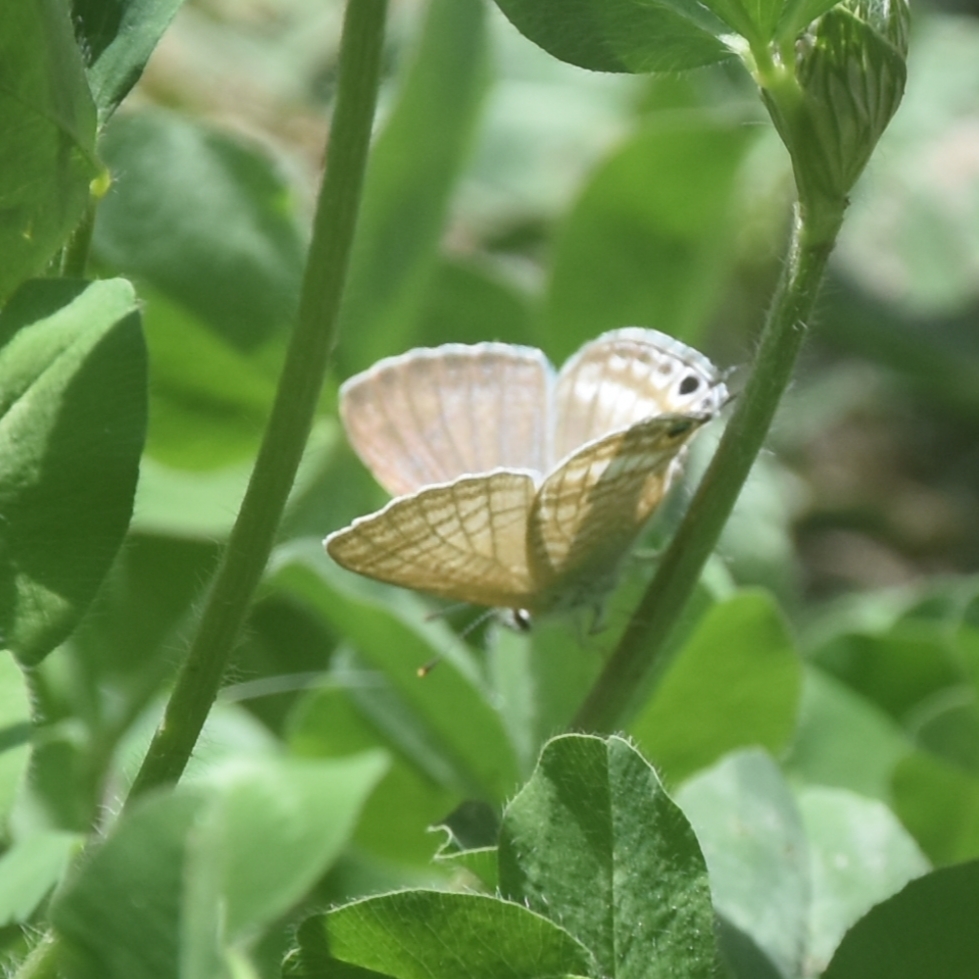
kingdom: Animalia
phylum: Arthropoda
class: Insecta
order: Lepidoptera
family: Lycaenidae
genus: Lampides
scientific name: Lampides boeticus
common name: Long-tailed blue
